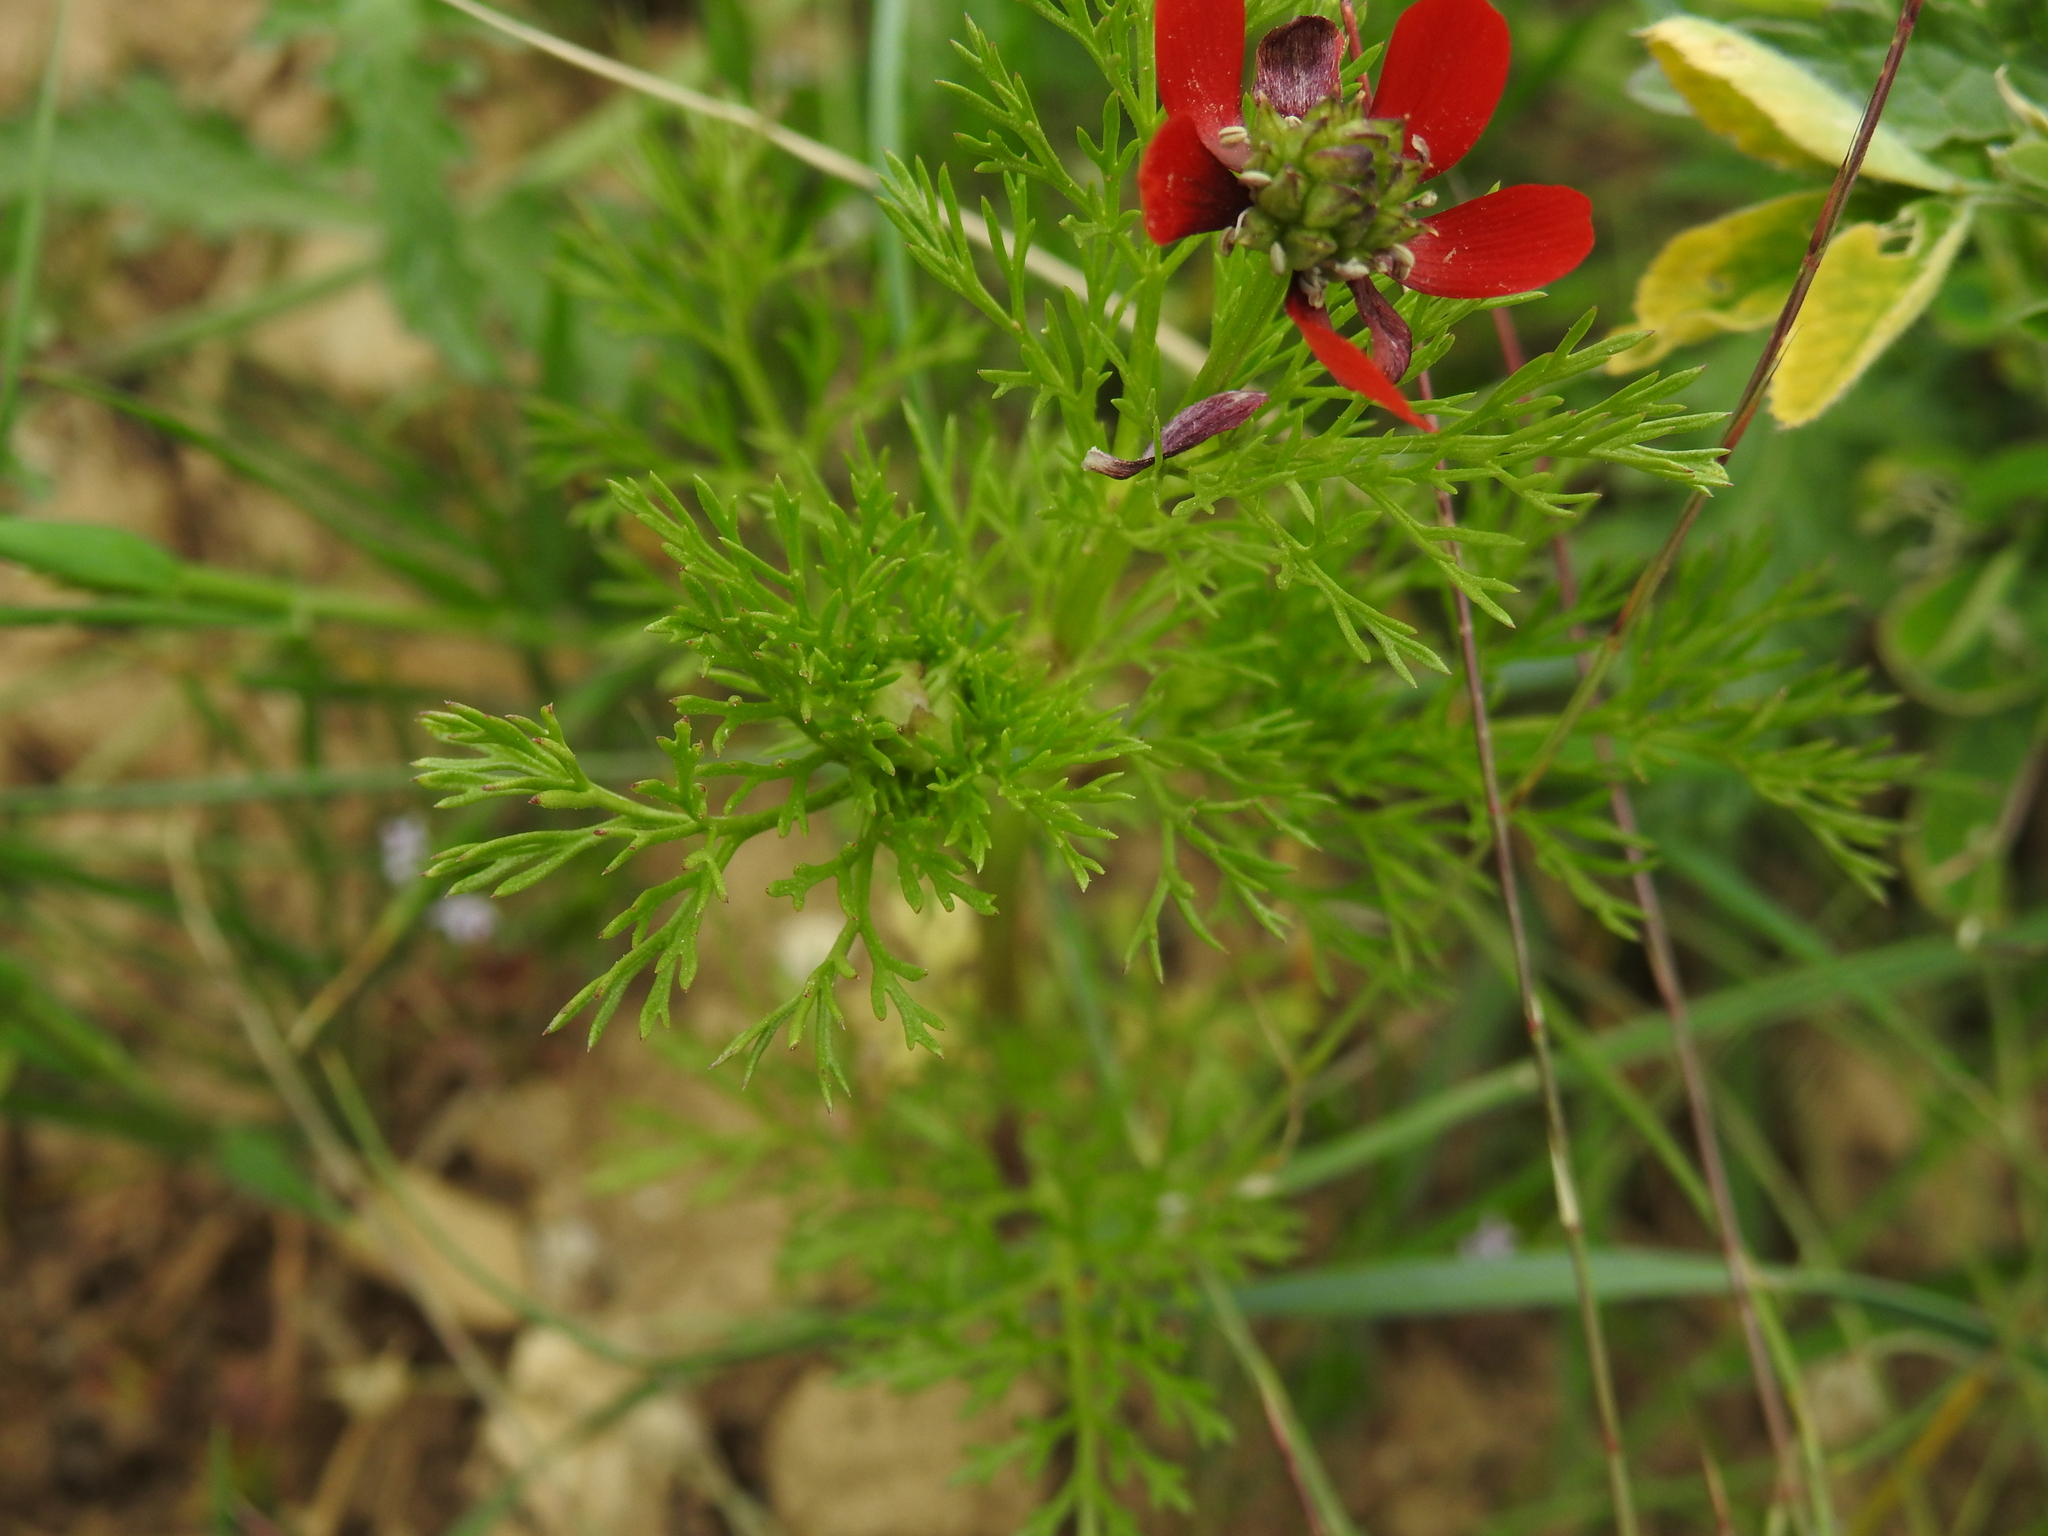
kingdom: Plantae
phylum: Tracheophyta
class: Magnoliopsida
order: Ranunculales
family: Ranunculaceae
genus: Adonis
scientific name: Adonis annua
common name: Pheasant's-eye
